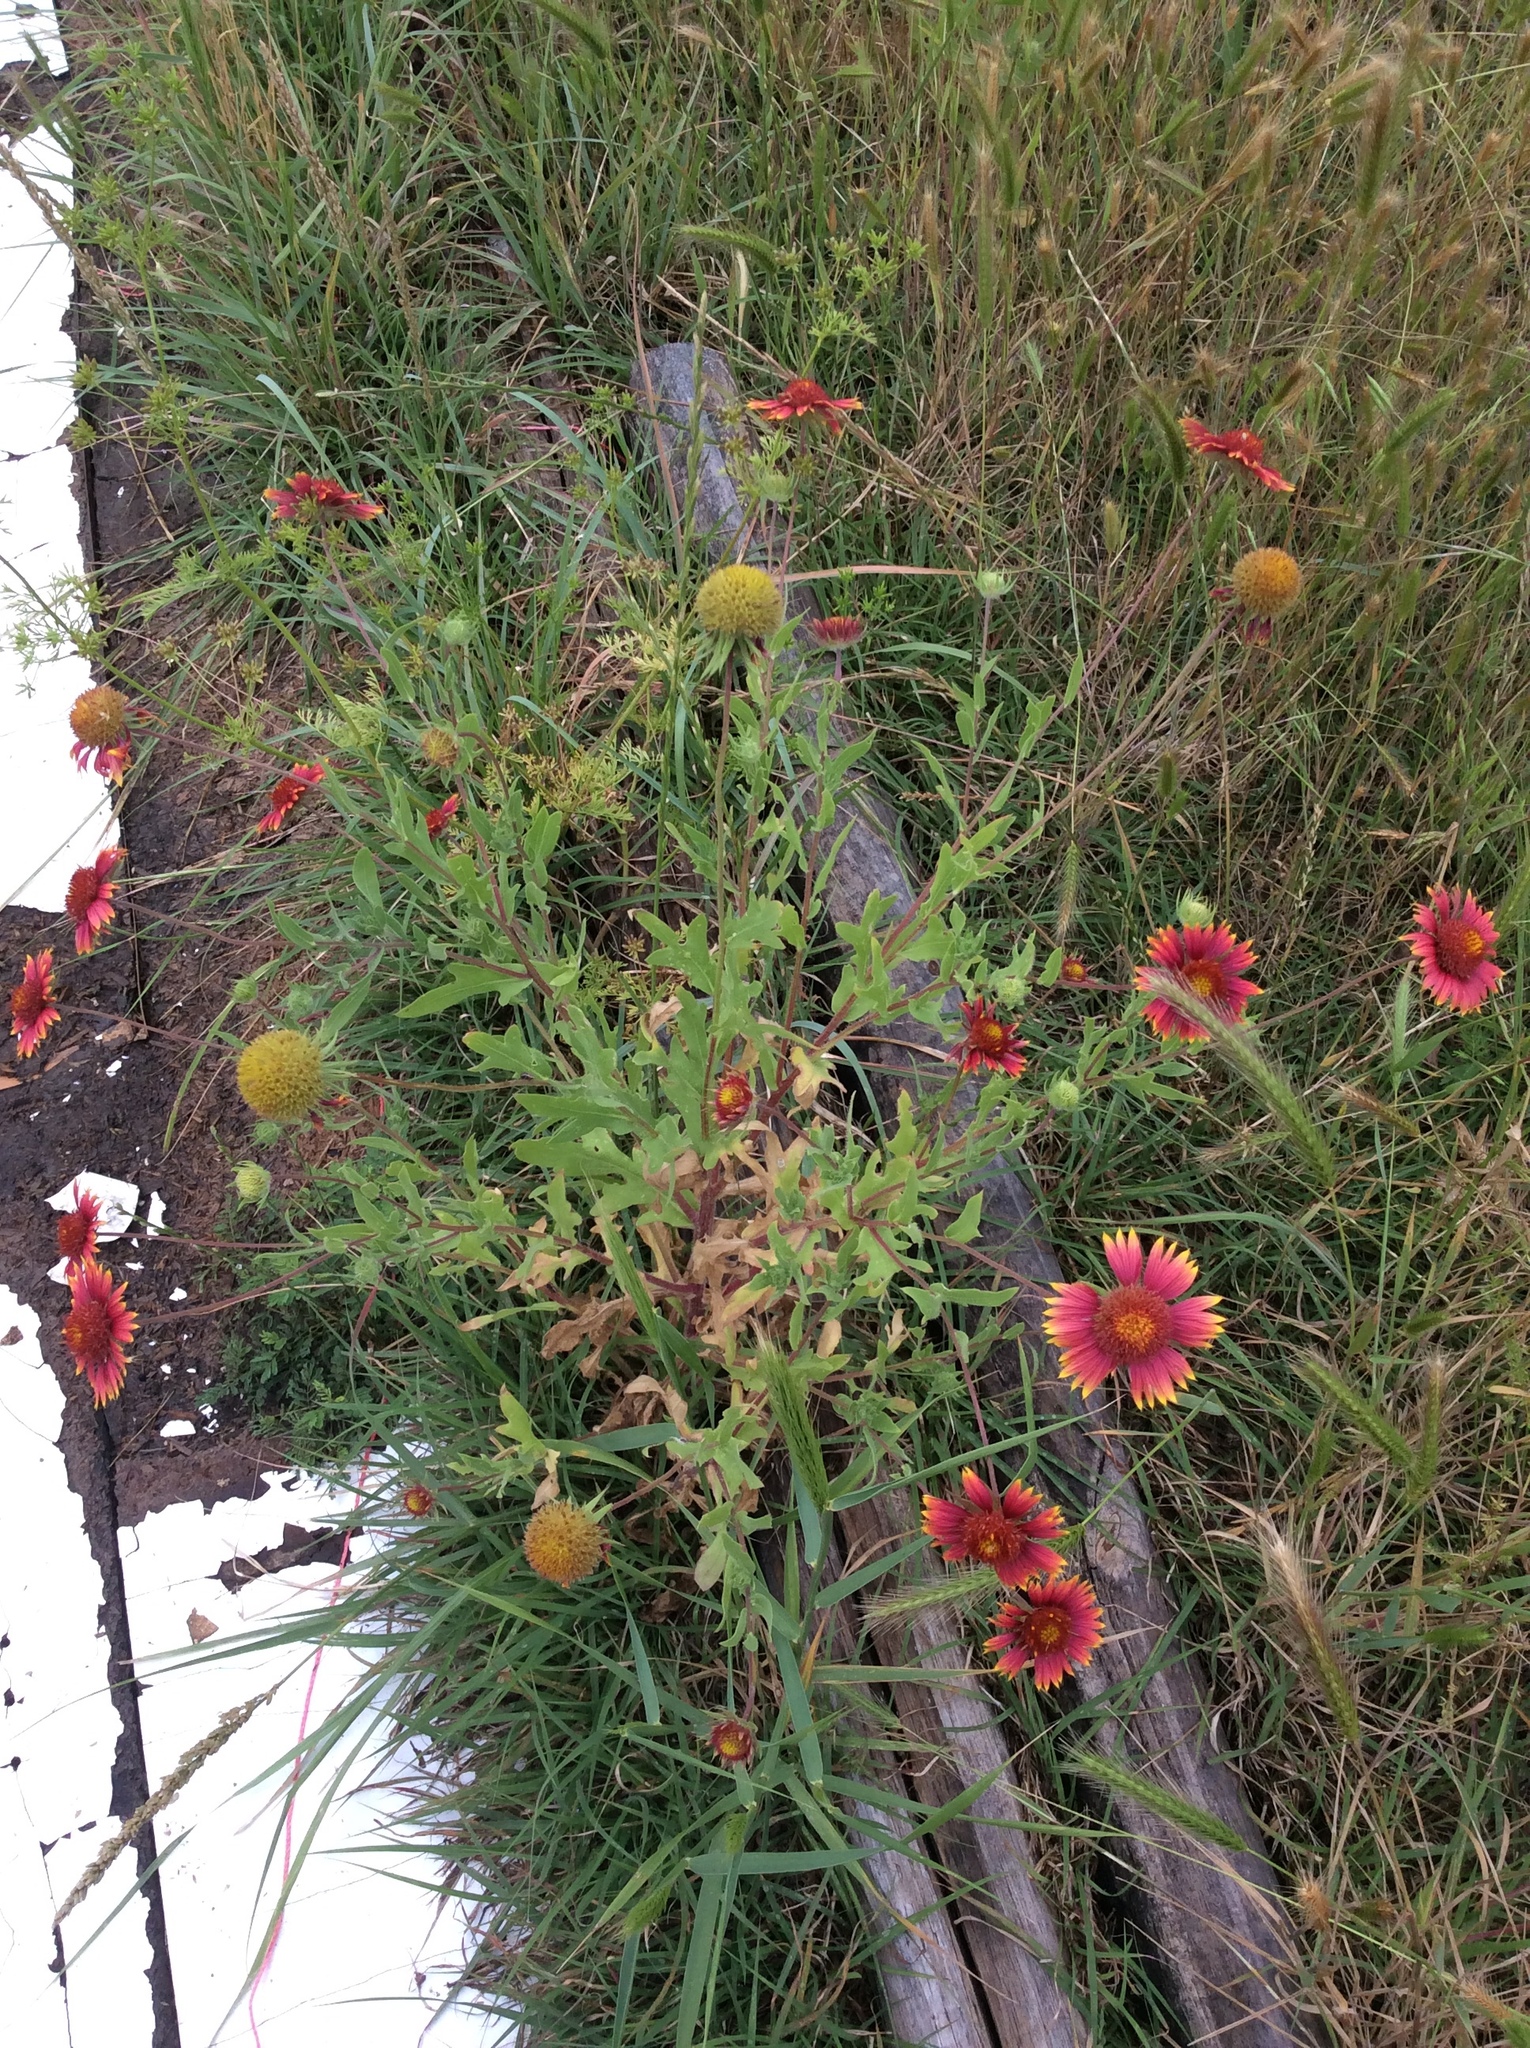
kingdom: Plantae
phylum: Tracheophyta
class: Magnoliopsida
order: Asterales
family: Asteraceae
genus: Gaillardia
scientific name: Gaillardia pulchella
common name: Firewheel
